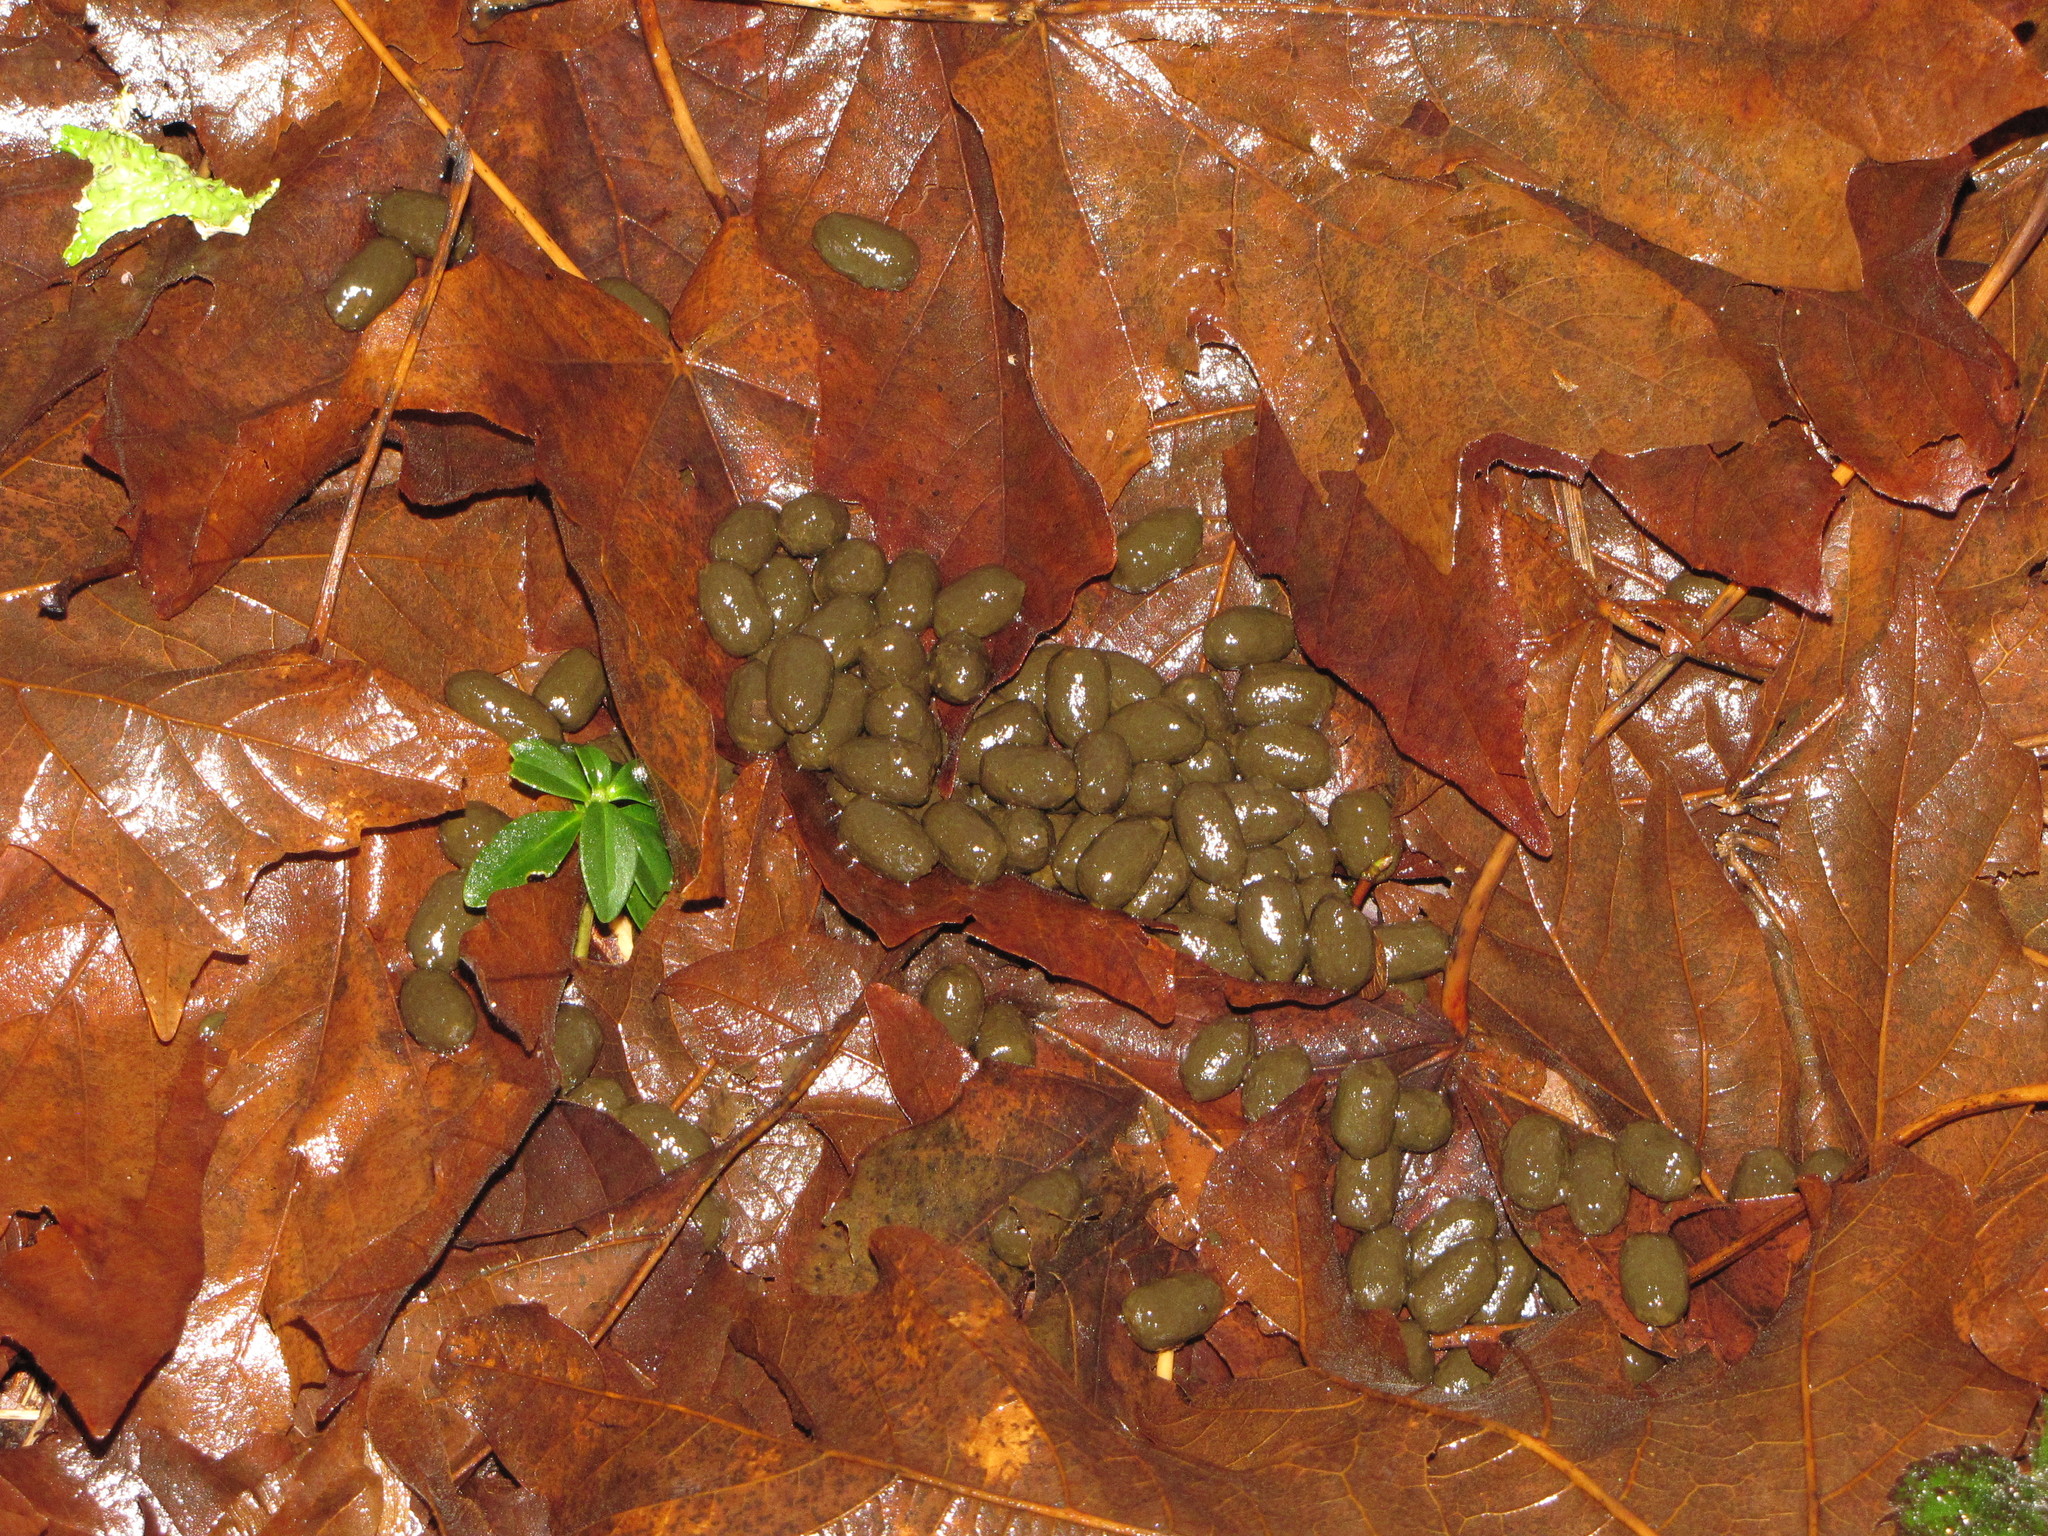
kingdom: Animalia
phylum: Chordata
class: Mammalia
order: Artiodactyla
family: Cervidae
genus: Odocoileus
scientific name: Odocoileus hemionus
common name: Mule deer
